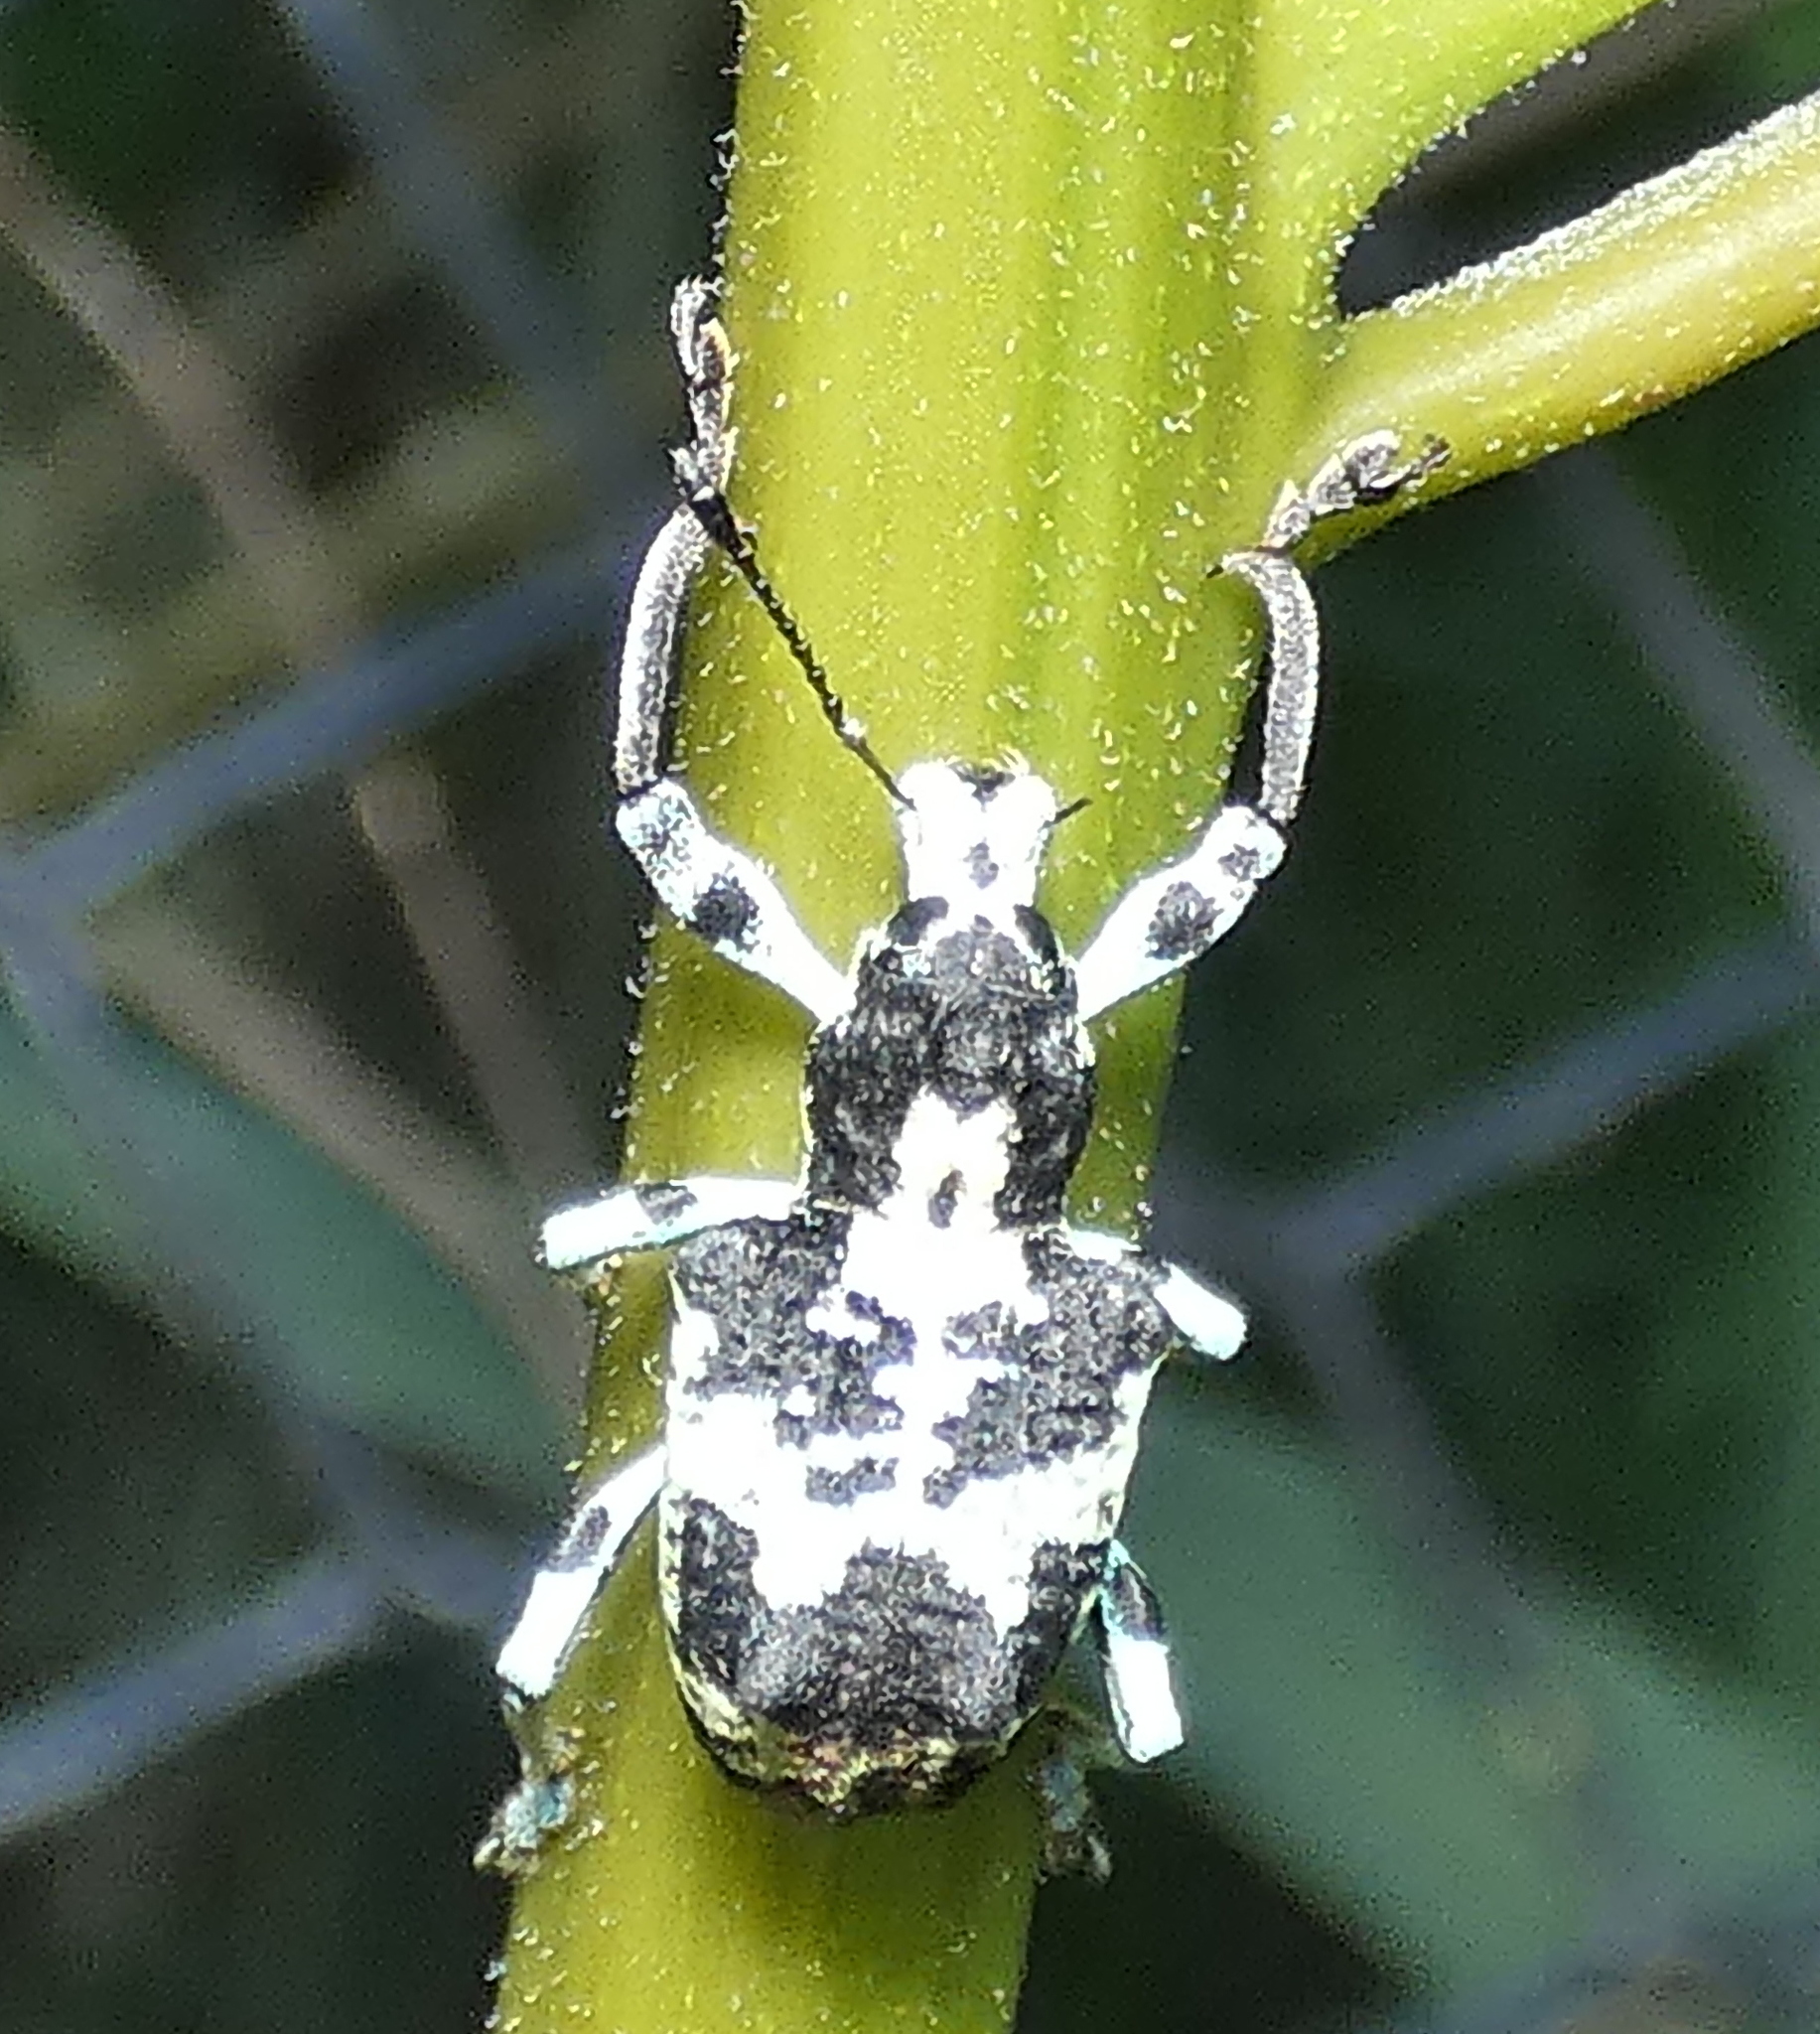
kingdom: Animalia
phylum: Arthropoda
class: Insecta
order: Coleoptera
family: Curculionidae
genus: Rhigus
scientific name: Rhigus dejeanii
